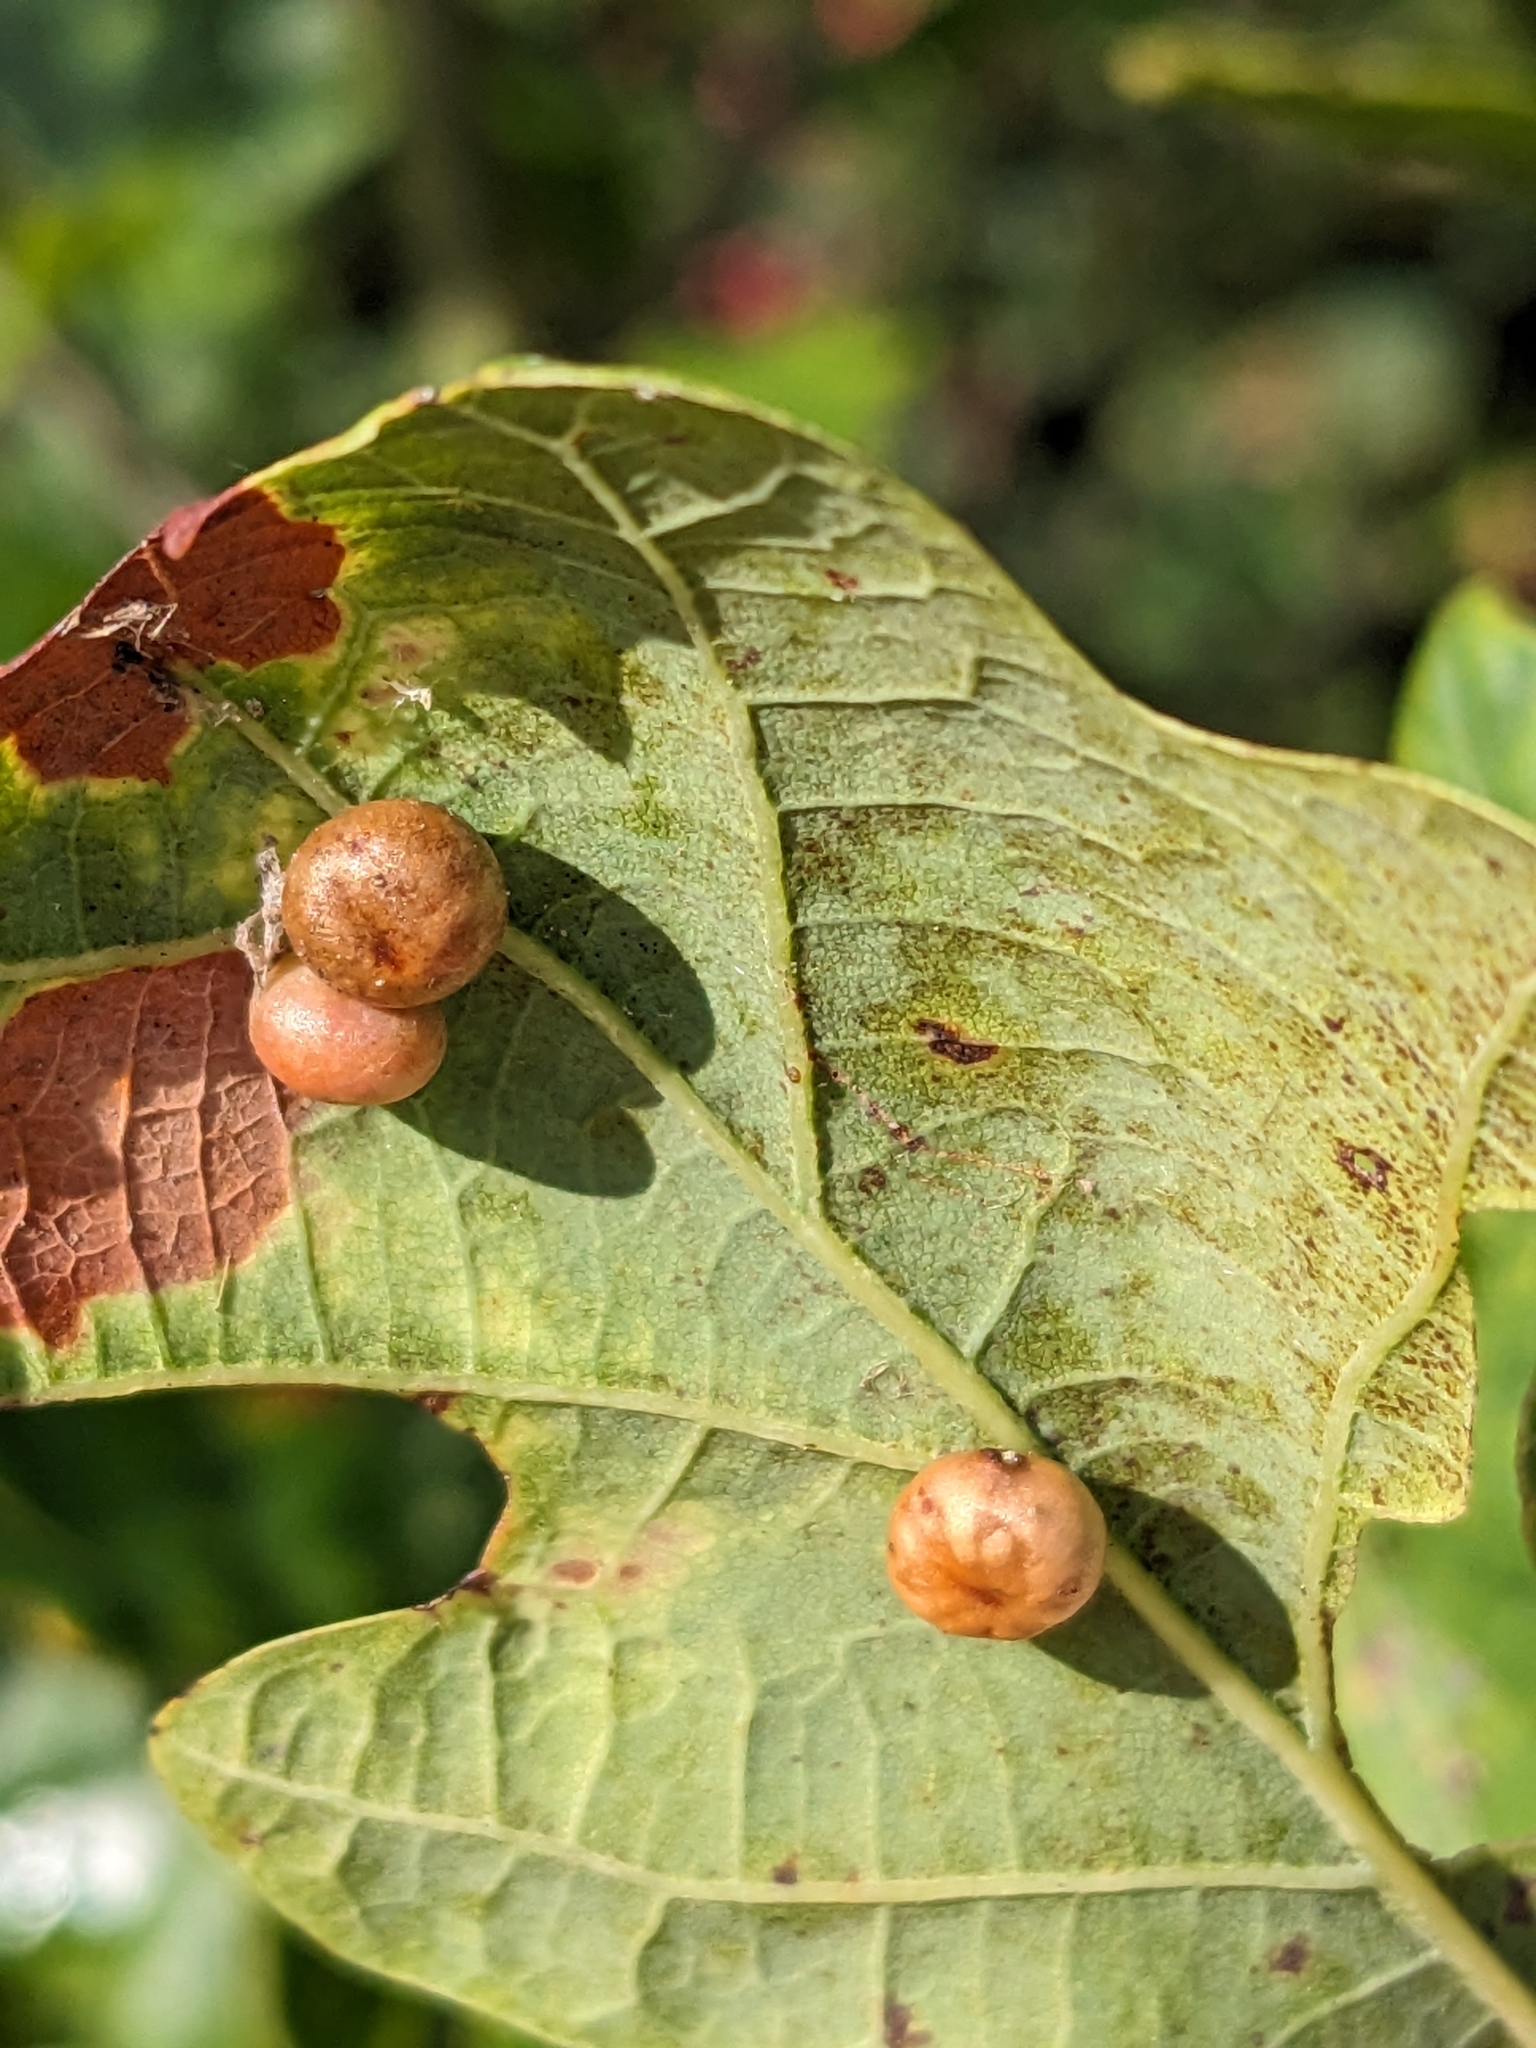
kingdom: Animalia
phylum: Arthropoda
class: Insecta
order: Hymenoptera
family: Cynipidae
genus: Cynips
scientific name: Cynips divisa
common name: Red currant gall
